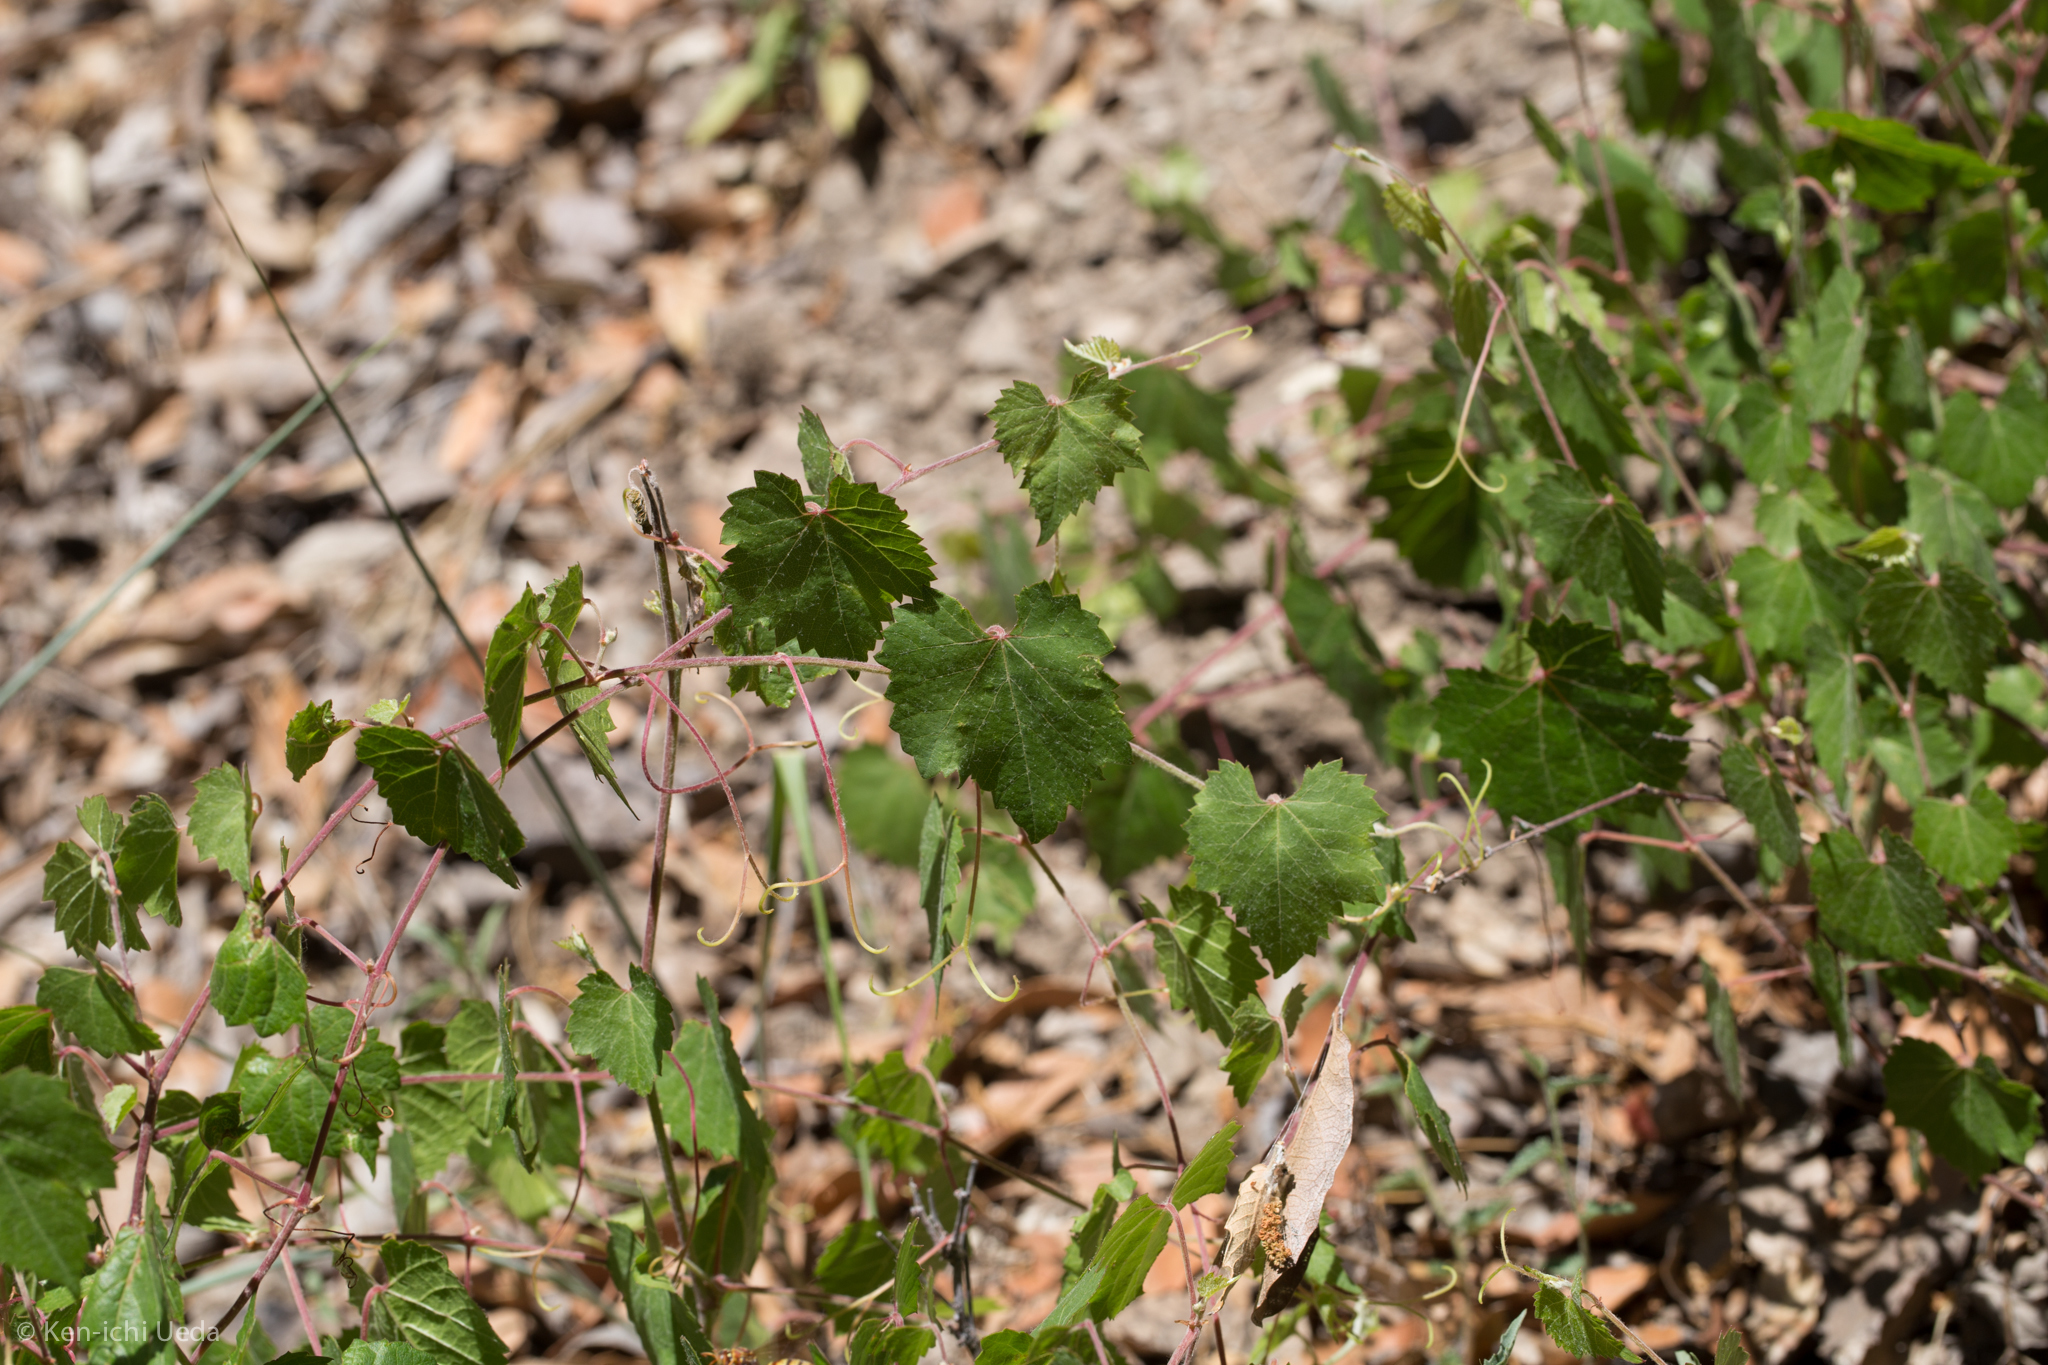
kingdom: Plantae
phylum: Tracheophyta
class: Magnoliopsida
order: Vitales
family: Vitaceae
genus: Vitis
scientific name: Vitis arizonica
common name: Canyon grape
